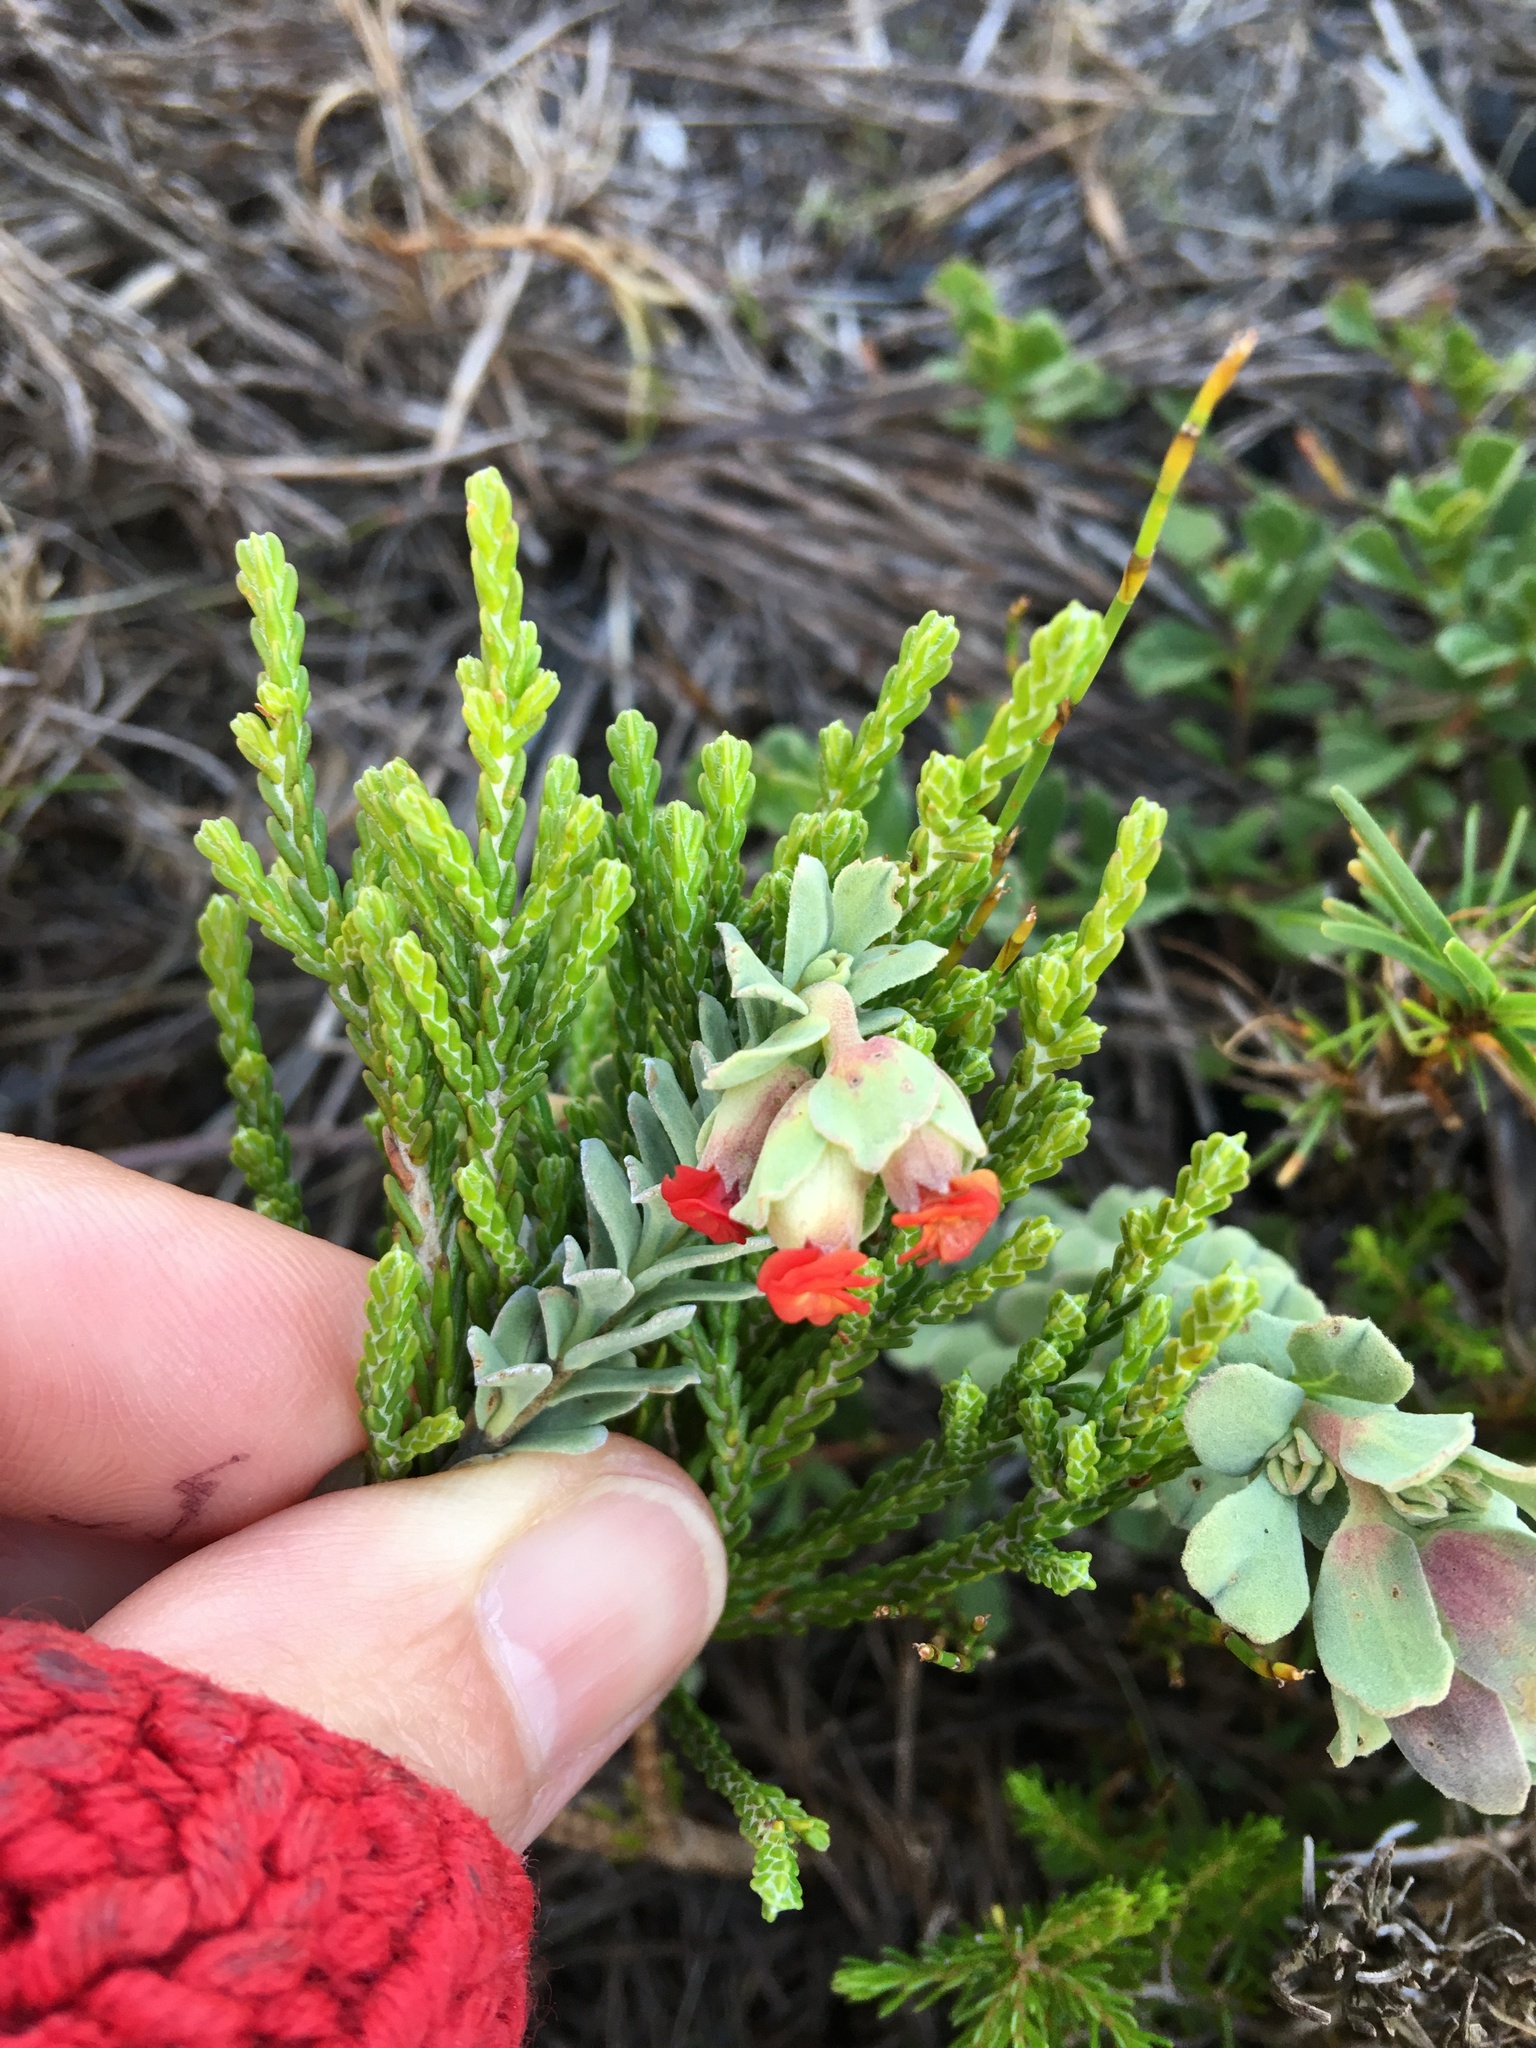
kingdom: Plantae
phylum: Tracheophyta
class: Magnoliopsida
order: Malvales
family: Malvaceae
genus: Hermannia
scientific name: Hermannia trifoliata
